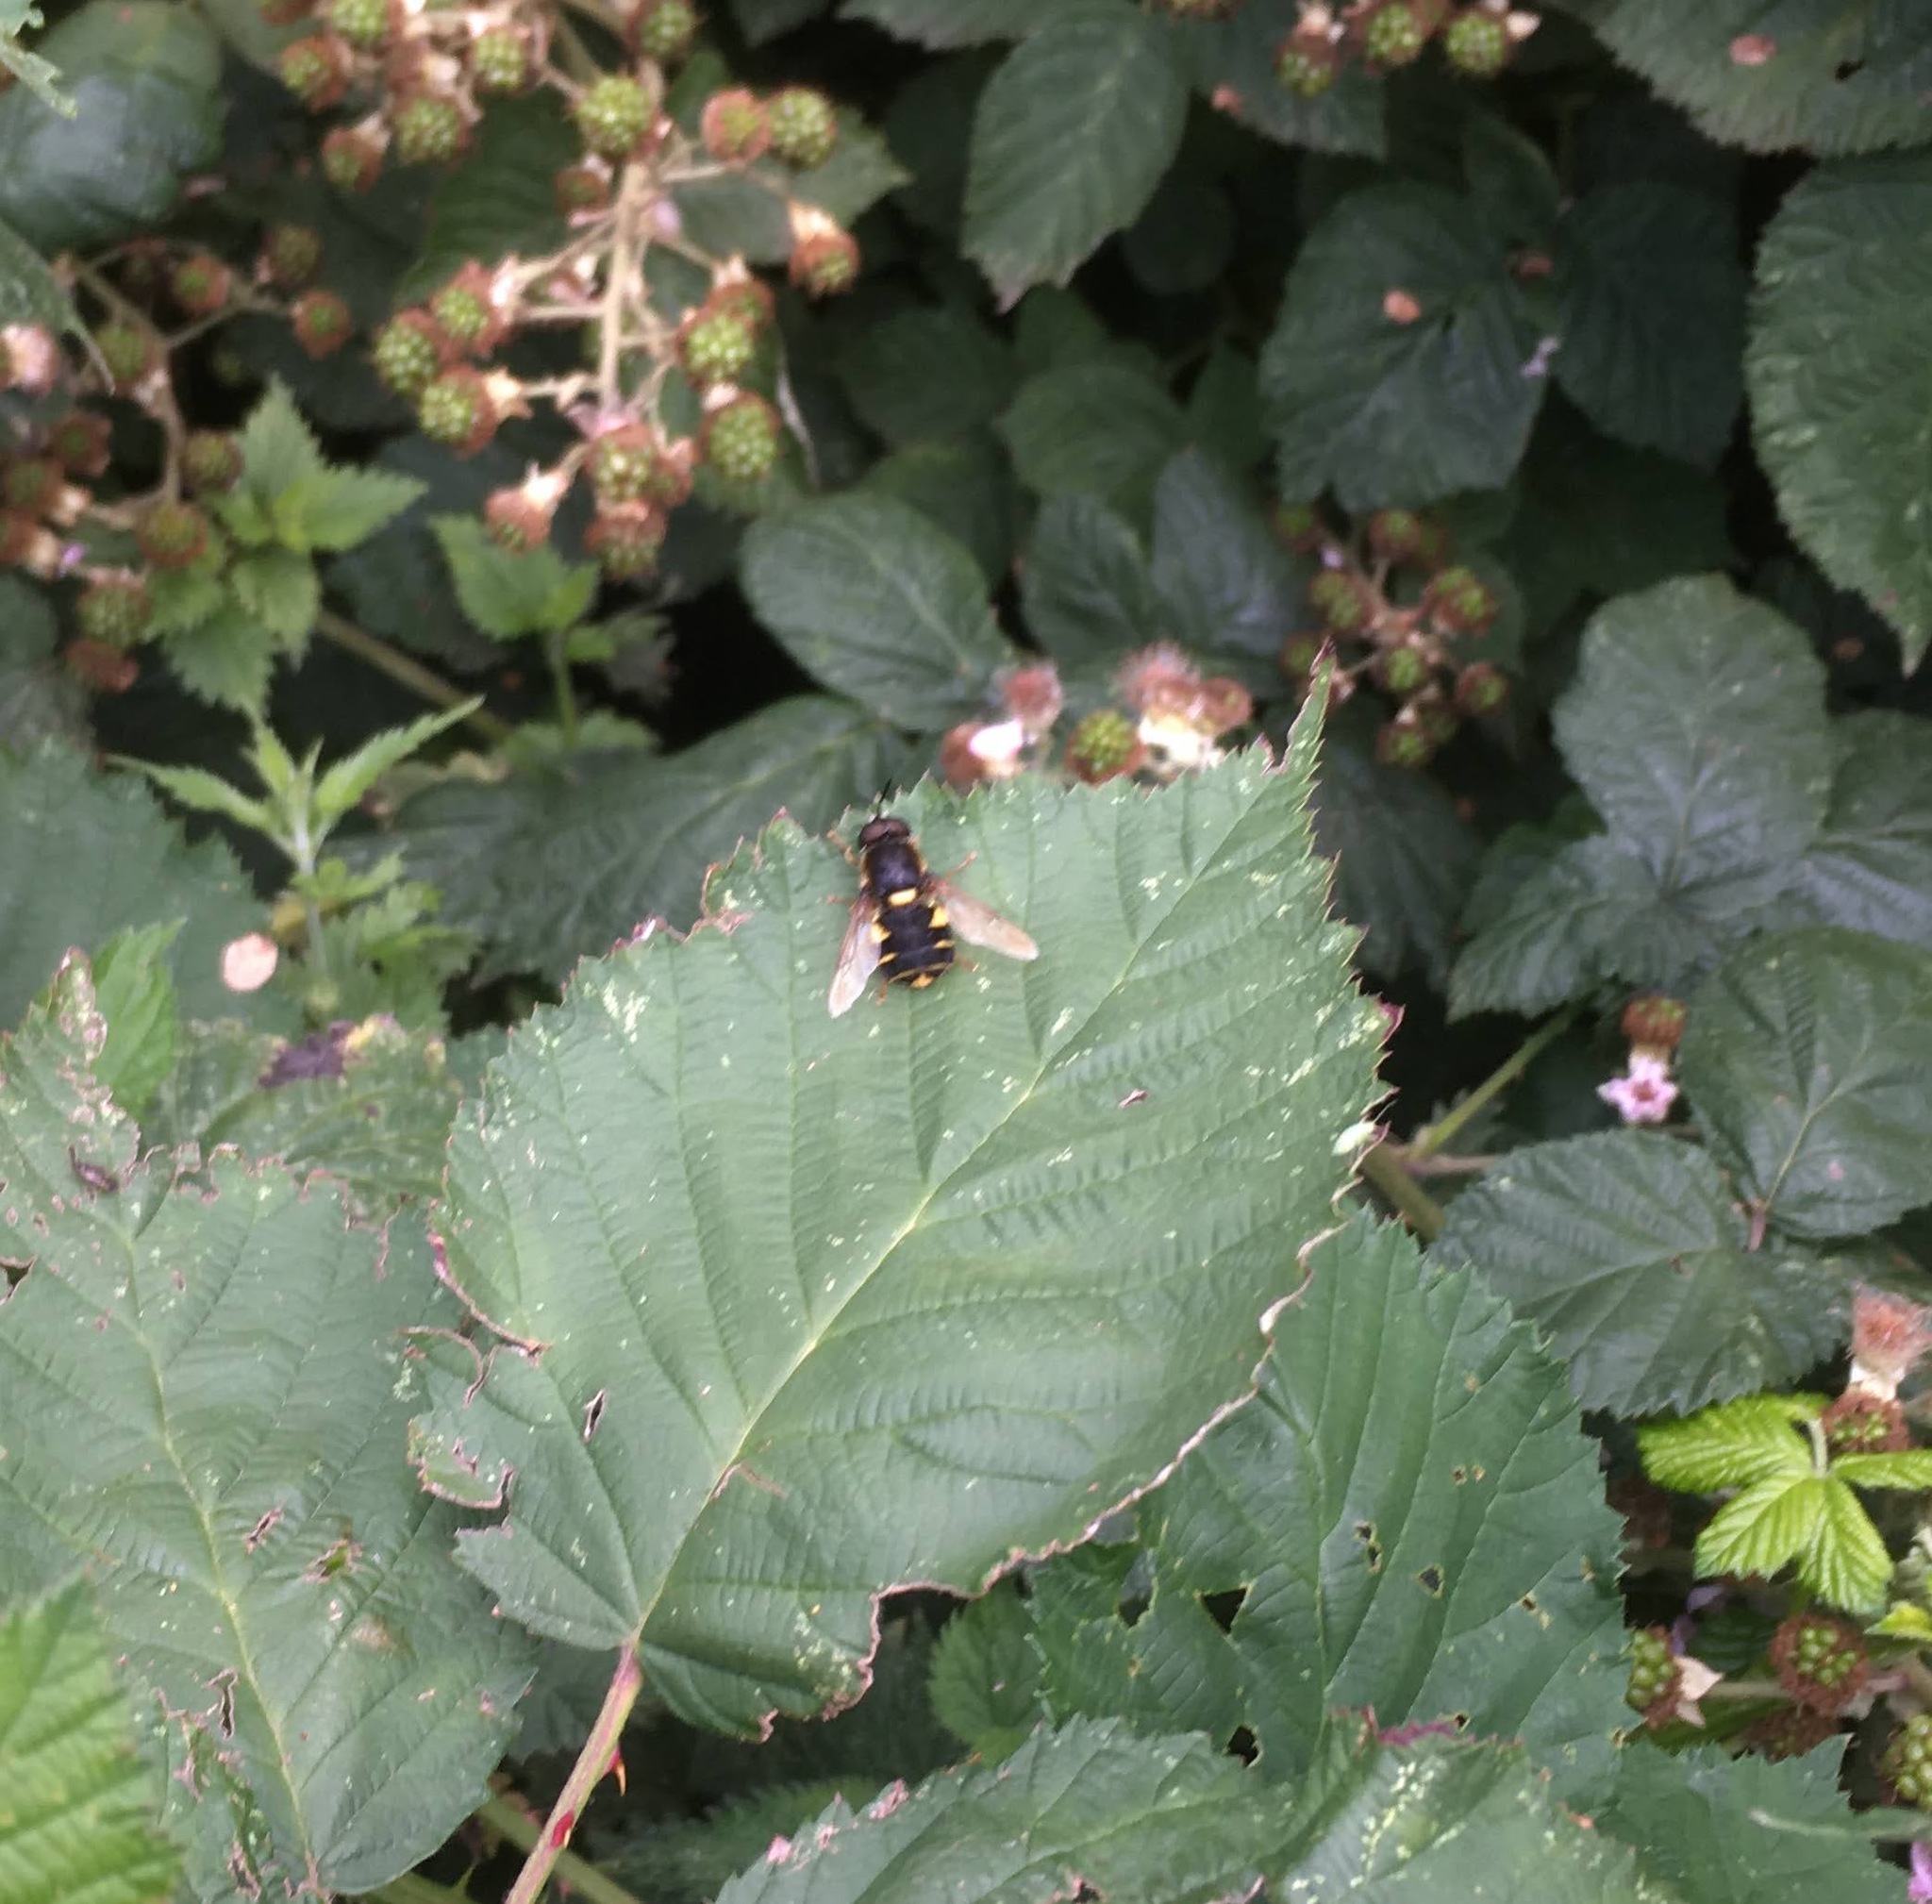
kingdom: Animalia
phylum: Arthropoda
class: Insecta
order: Diptera
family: Stratiomyidae
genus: Stratiomys
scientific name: Stratiomys potamida
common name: Banded general
